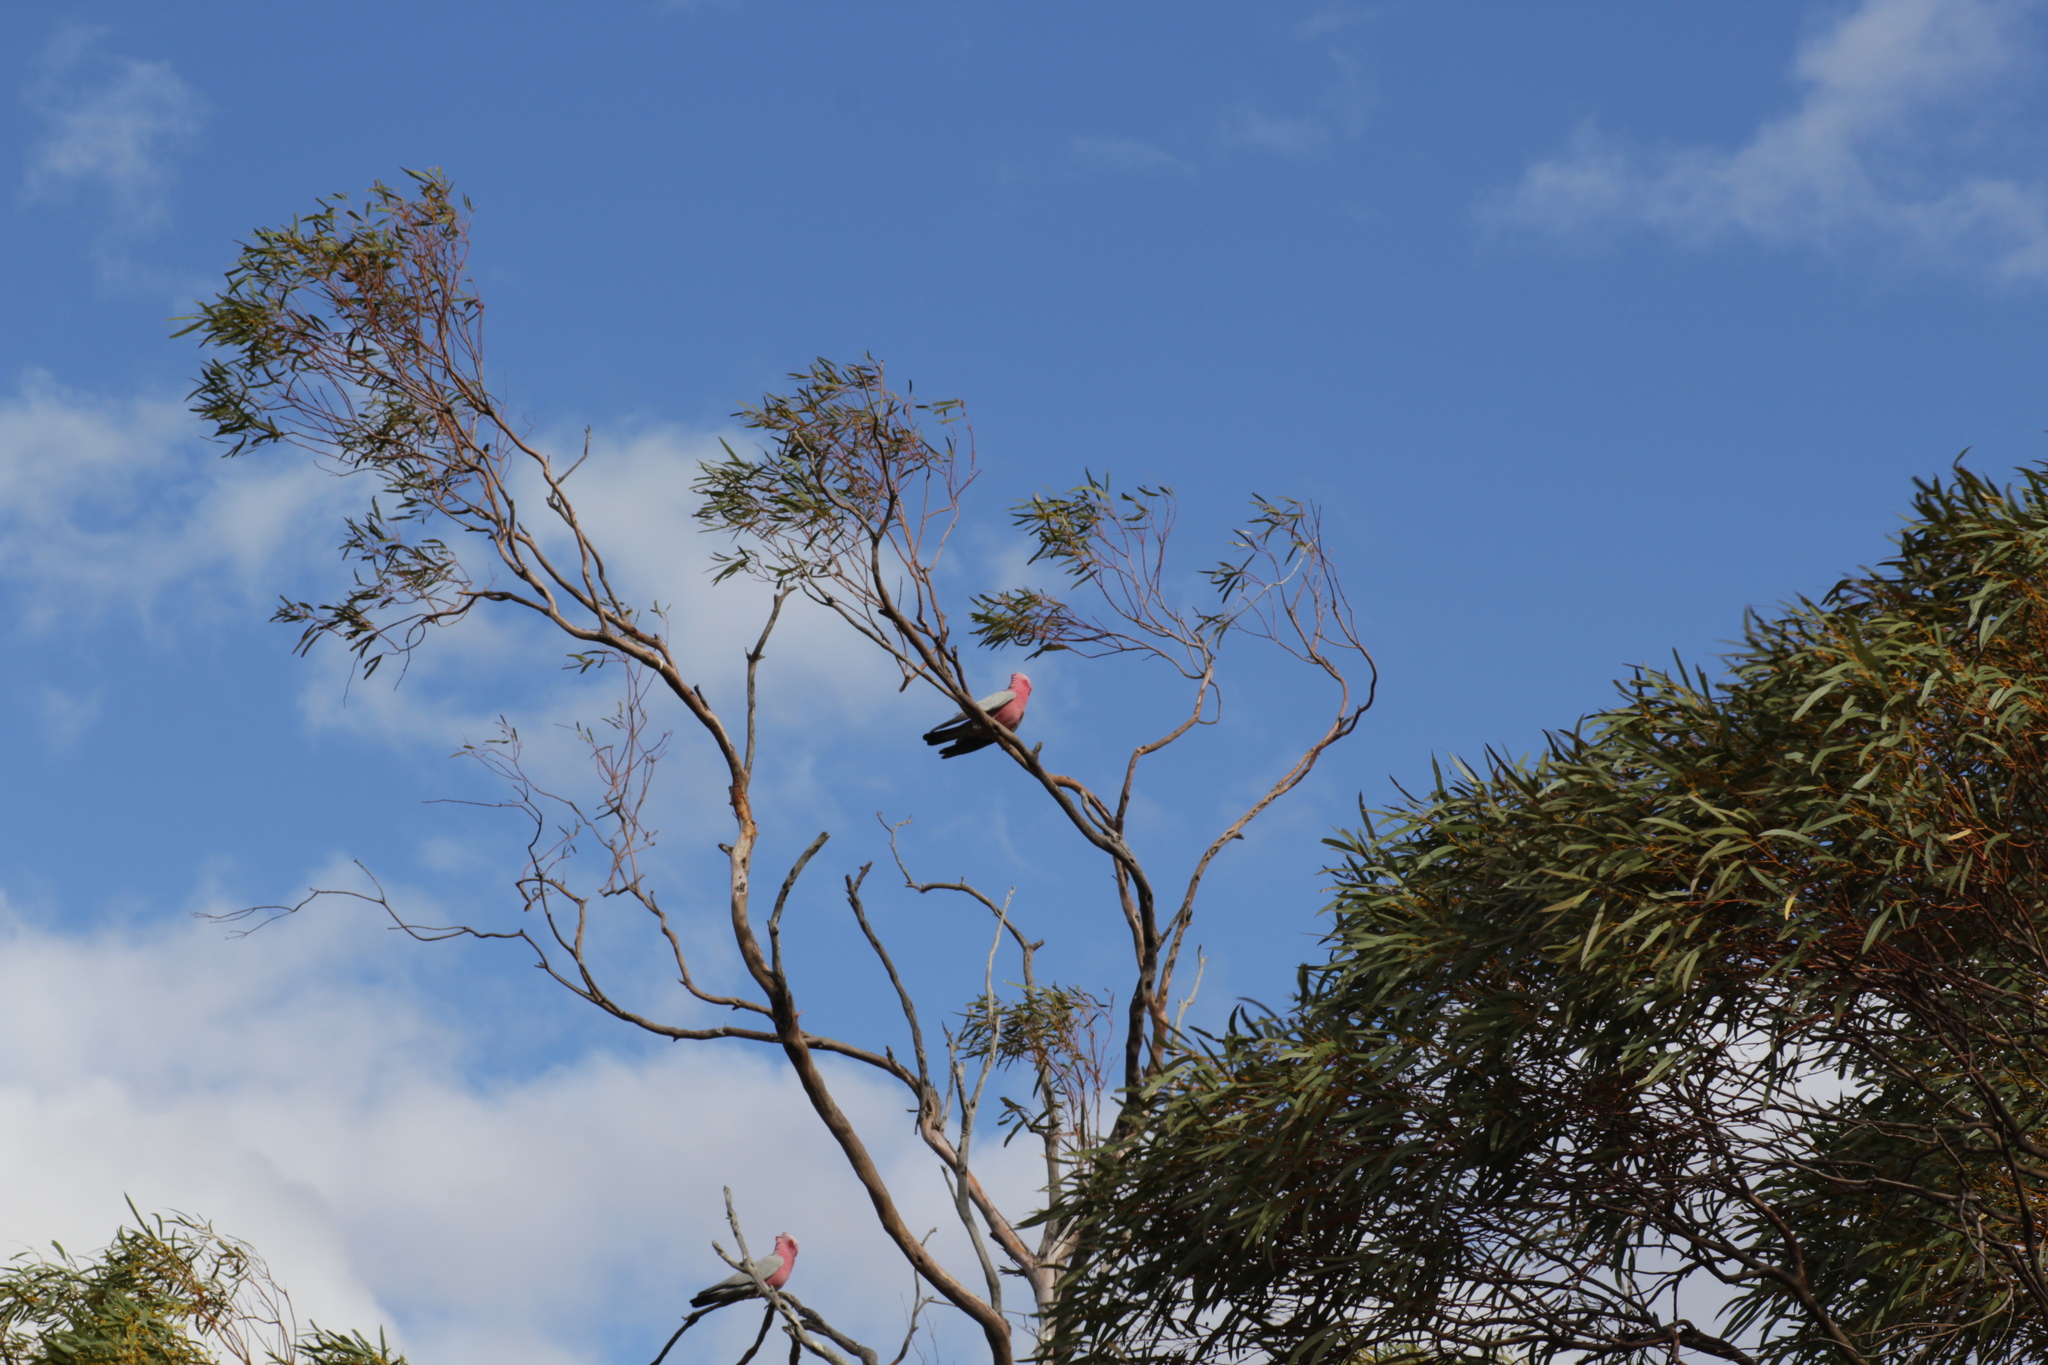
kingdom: Animalia
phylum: Chordata
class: Aves
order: Psittaciformes
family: Psittacidae
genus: Eolophus
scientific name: Eolophus roseicapilla
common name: Galah
